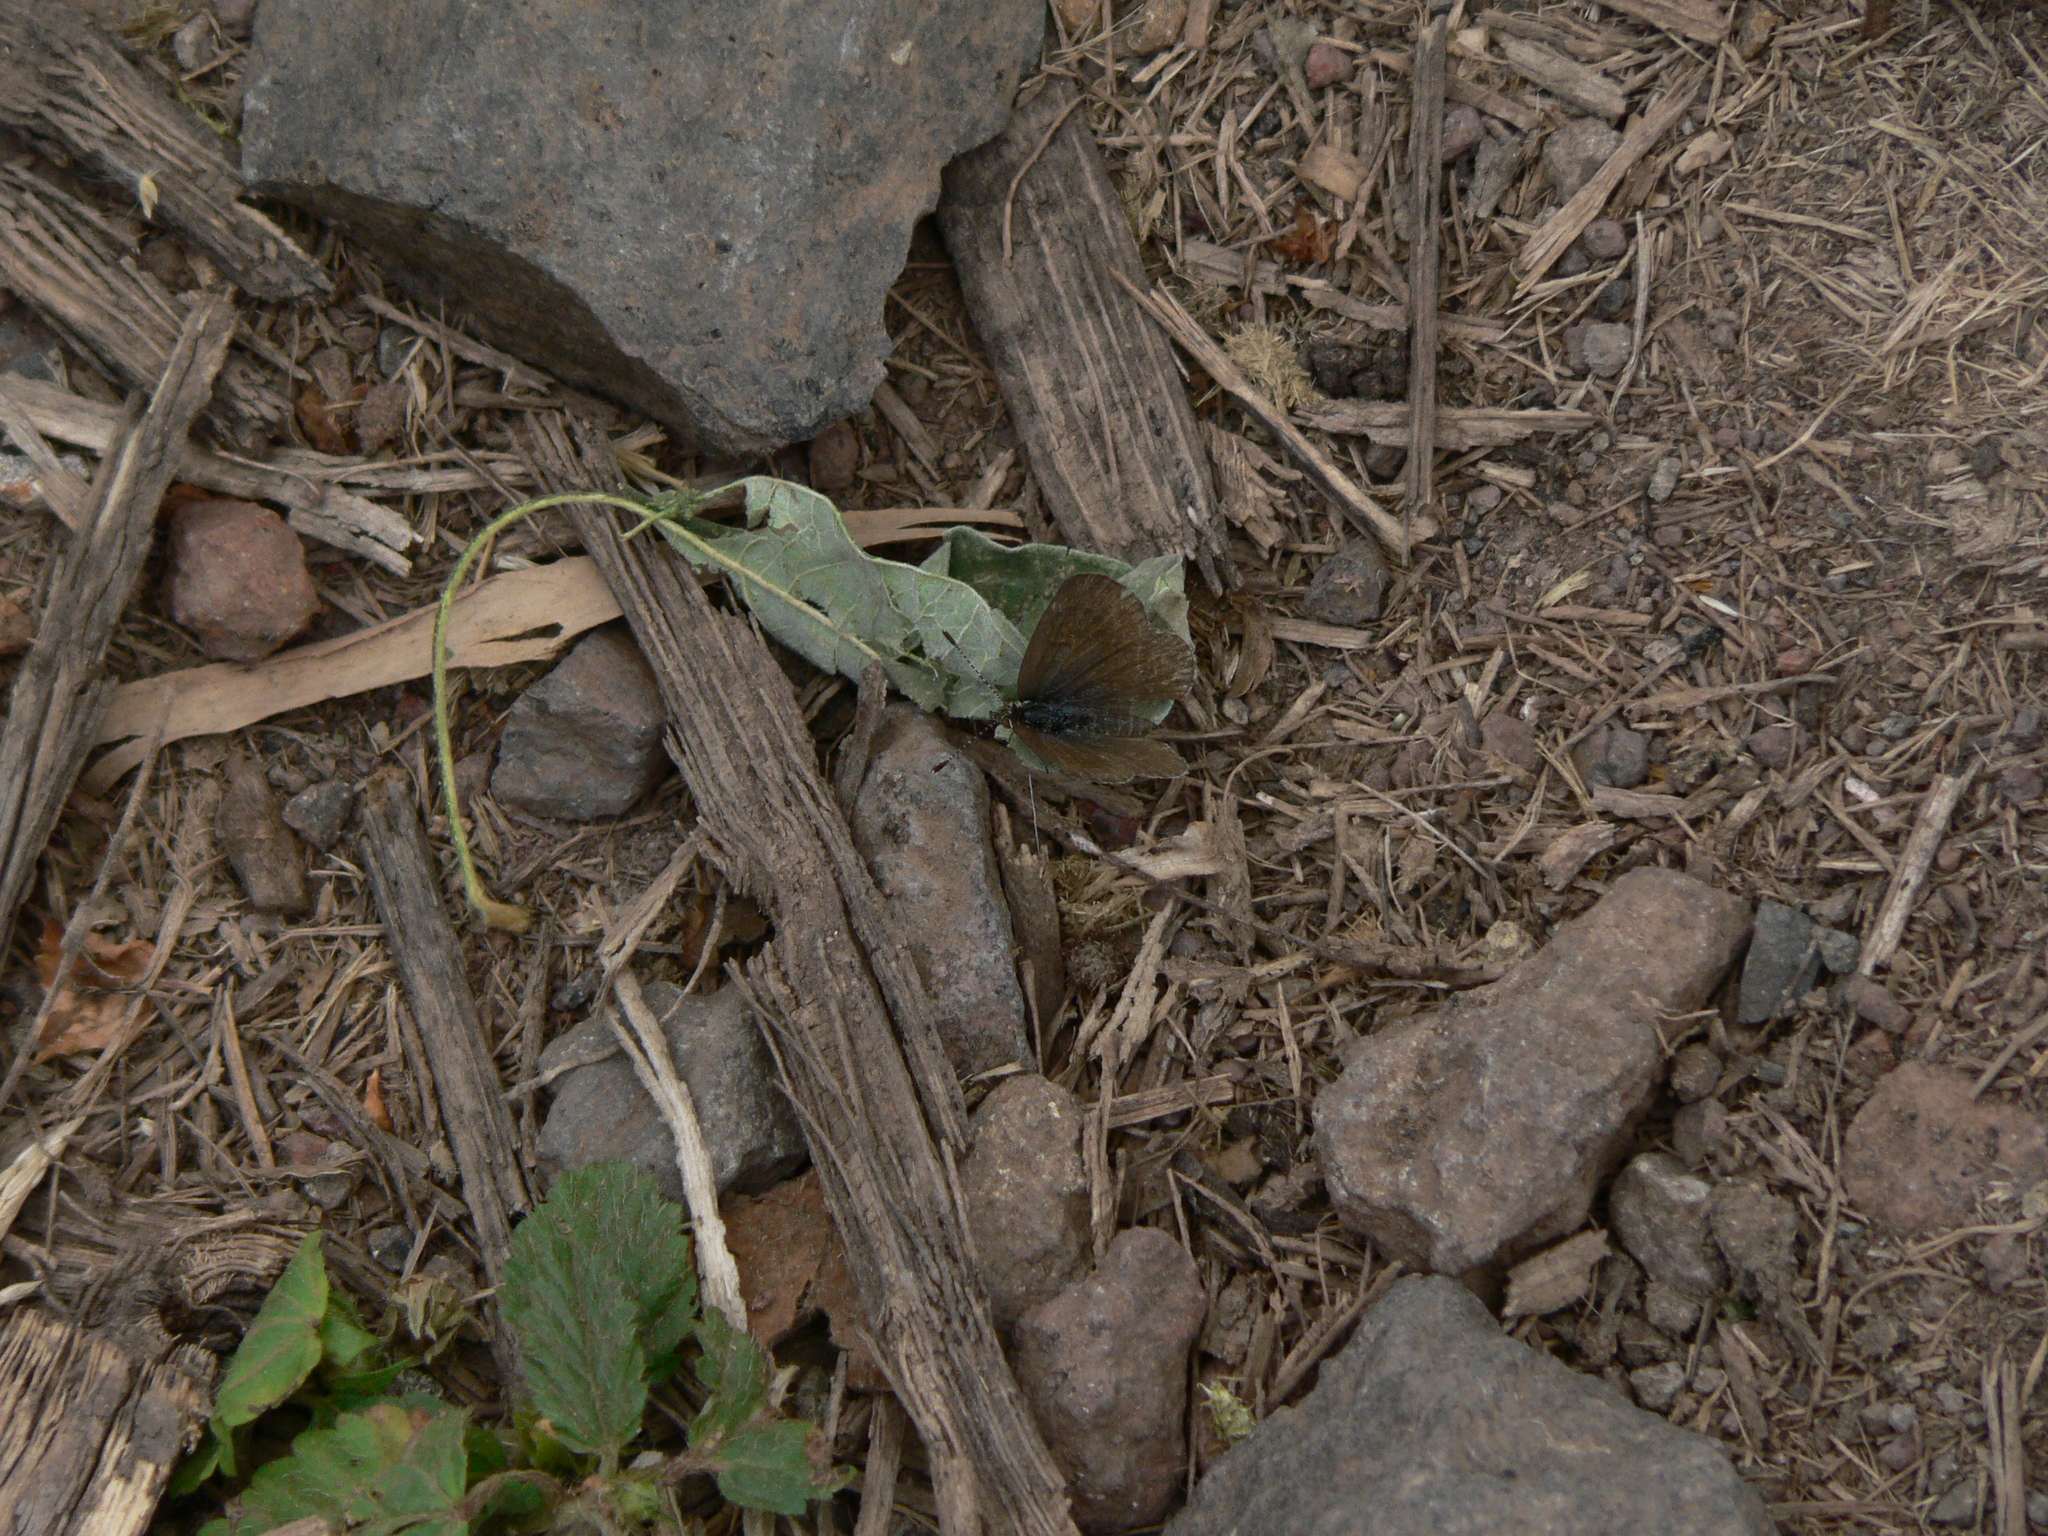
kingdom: Animalia
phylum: Arthropoda
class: Insecta
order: Lepidoptera
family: Lycaenidae
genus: Zizeeria
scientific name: Zizeeria knysna
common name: African grass blue
